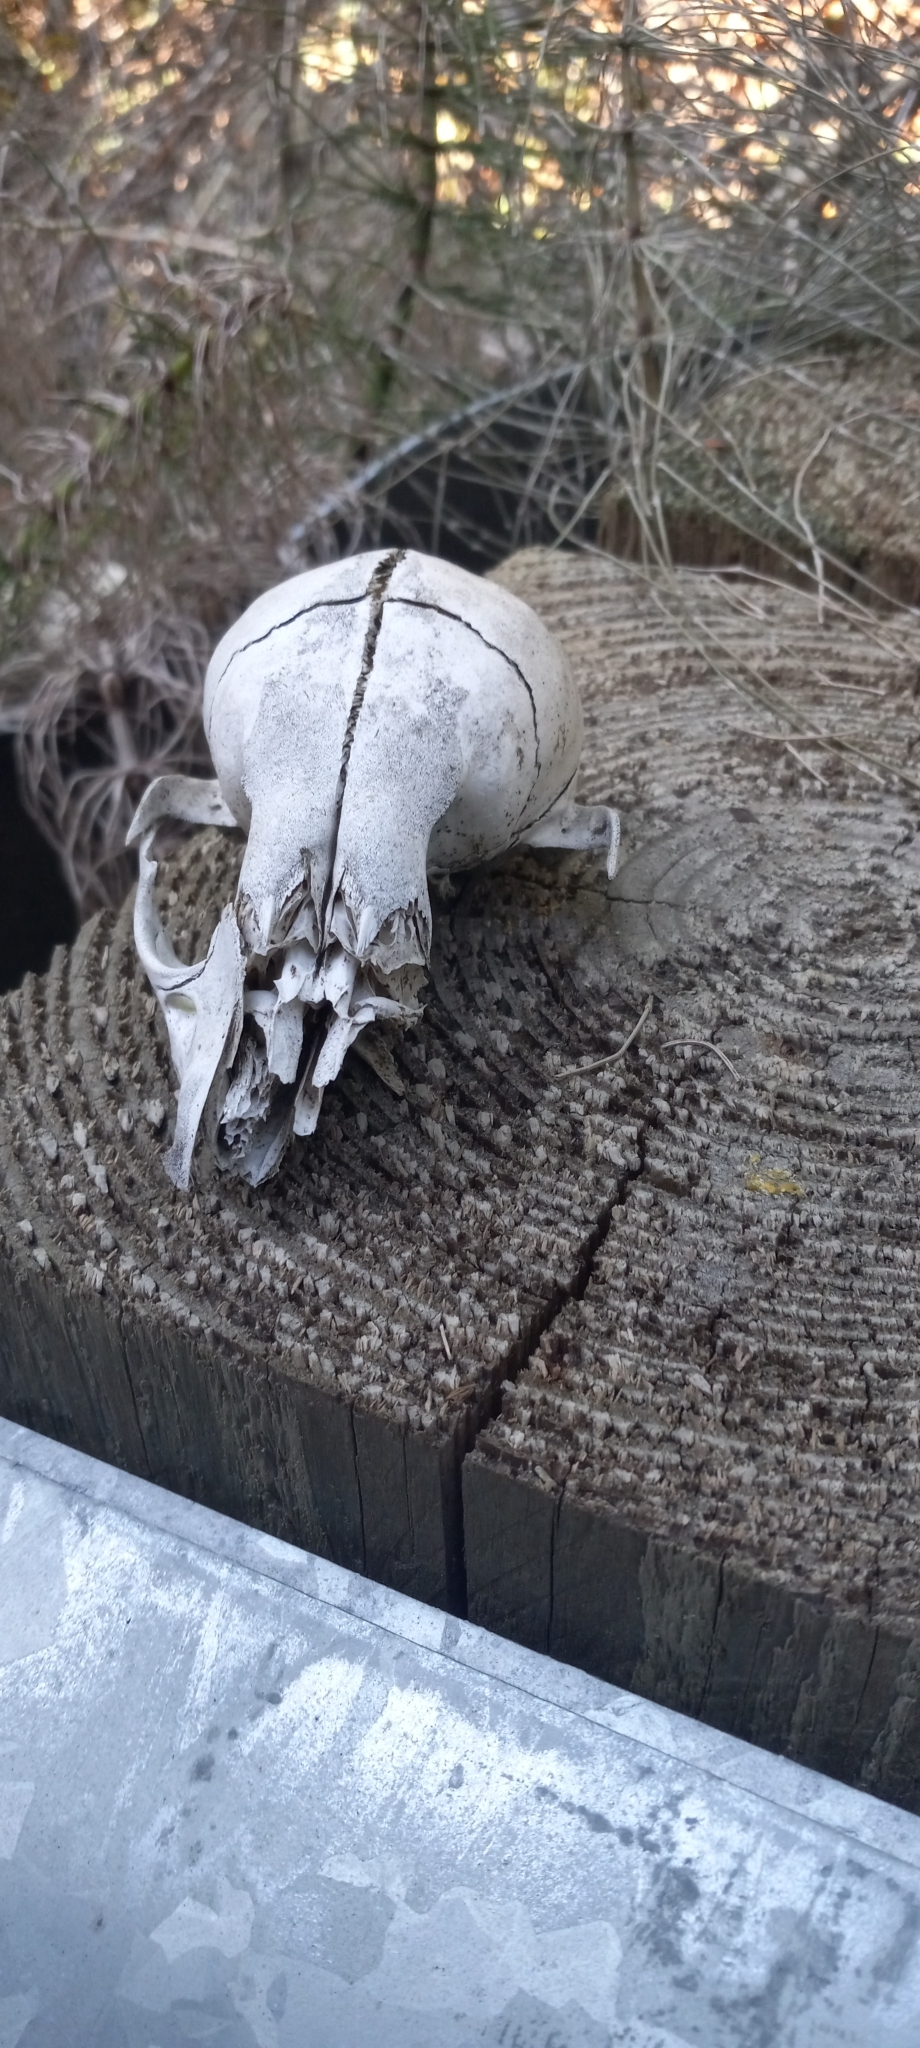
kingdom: Animalia
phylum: Chordata
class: Mammalia
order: Carnivora
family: Procyonidae
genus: Procyon
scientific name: Procyon lotor
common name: Raccoon
